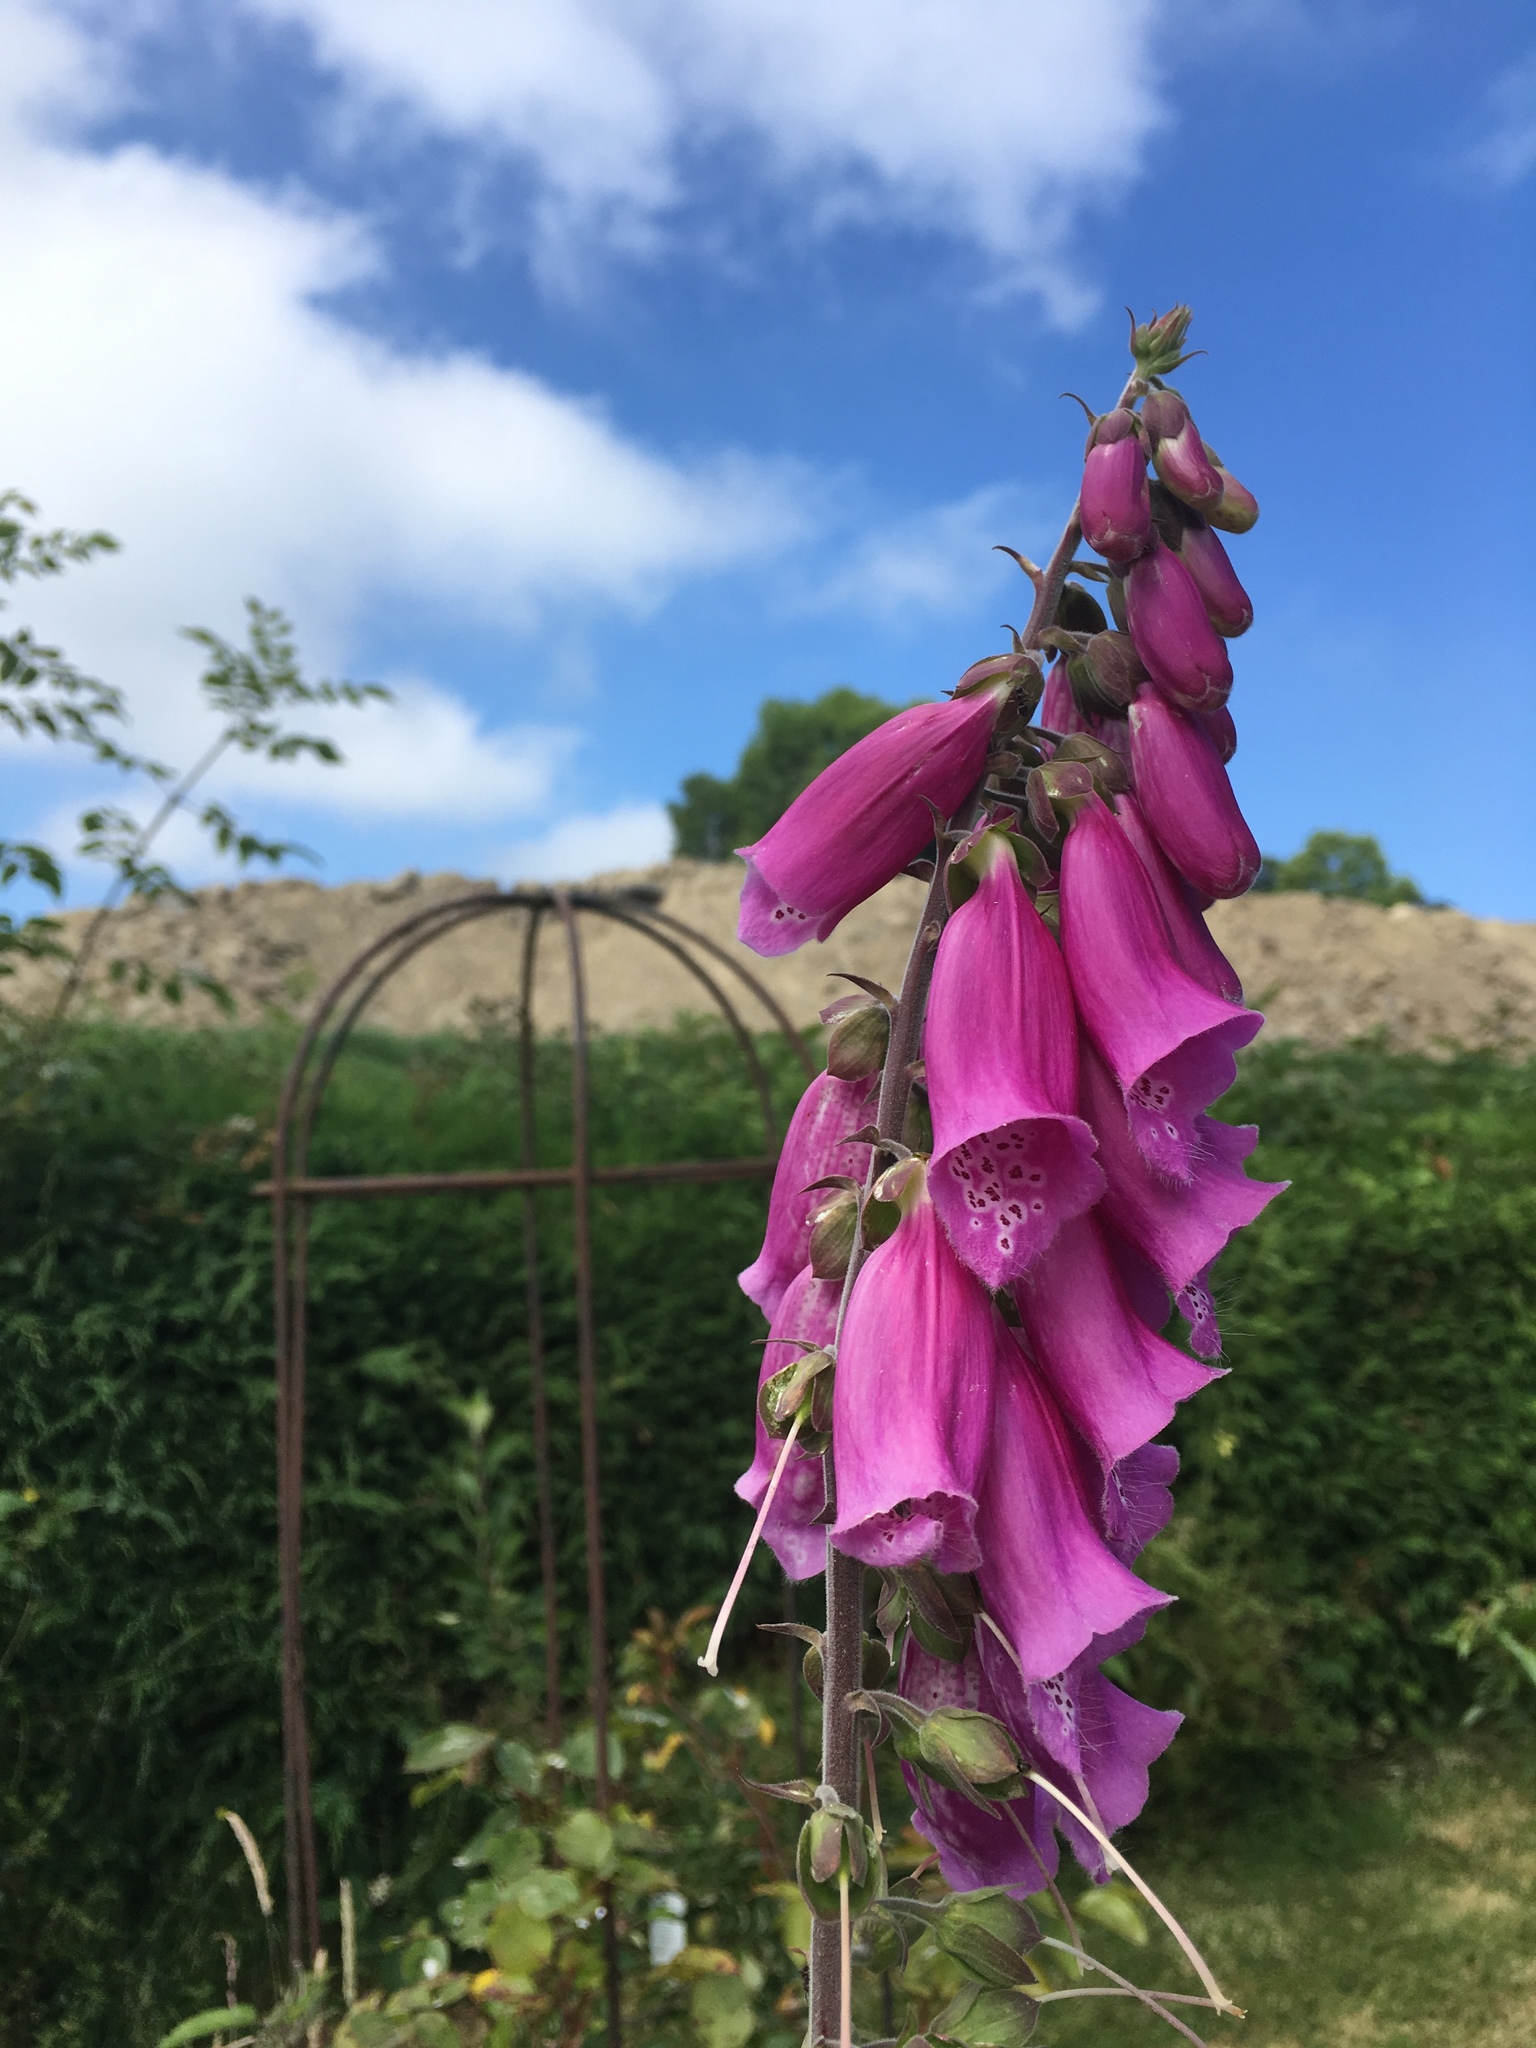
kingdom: Plantae
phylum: Tracheophyta
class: Magnoliopsida
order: Lamiales
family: Plantaginaceae
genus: Digitalis
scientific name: Digitalis purpurea
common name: Foxglove
